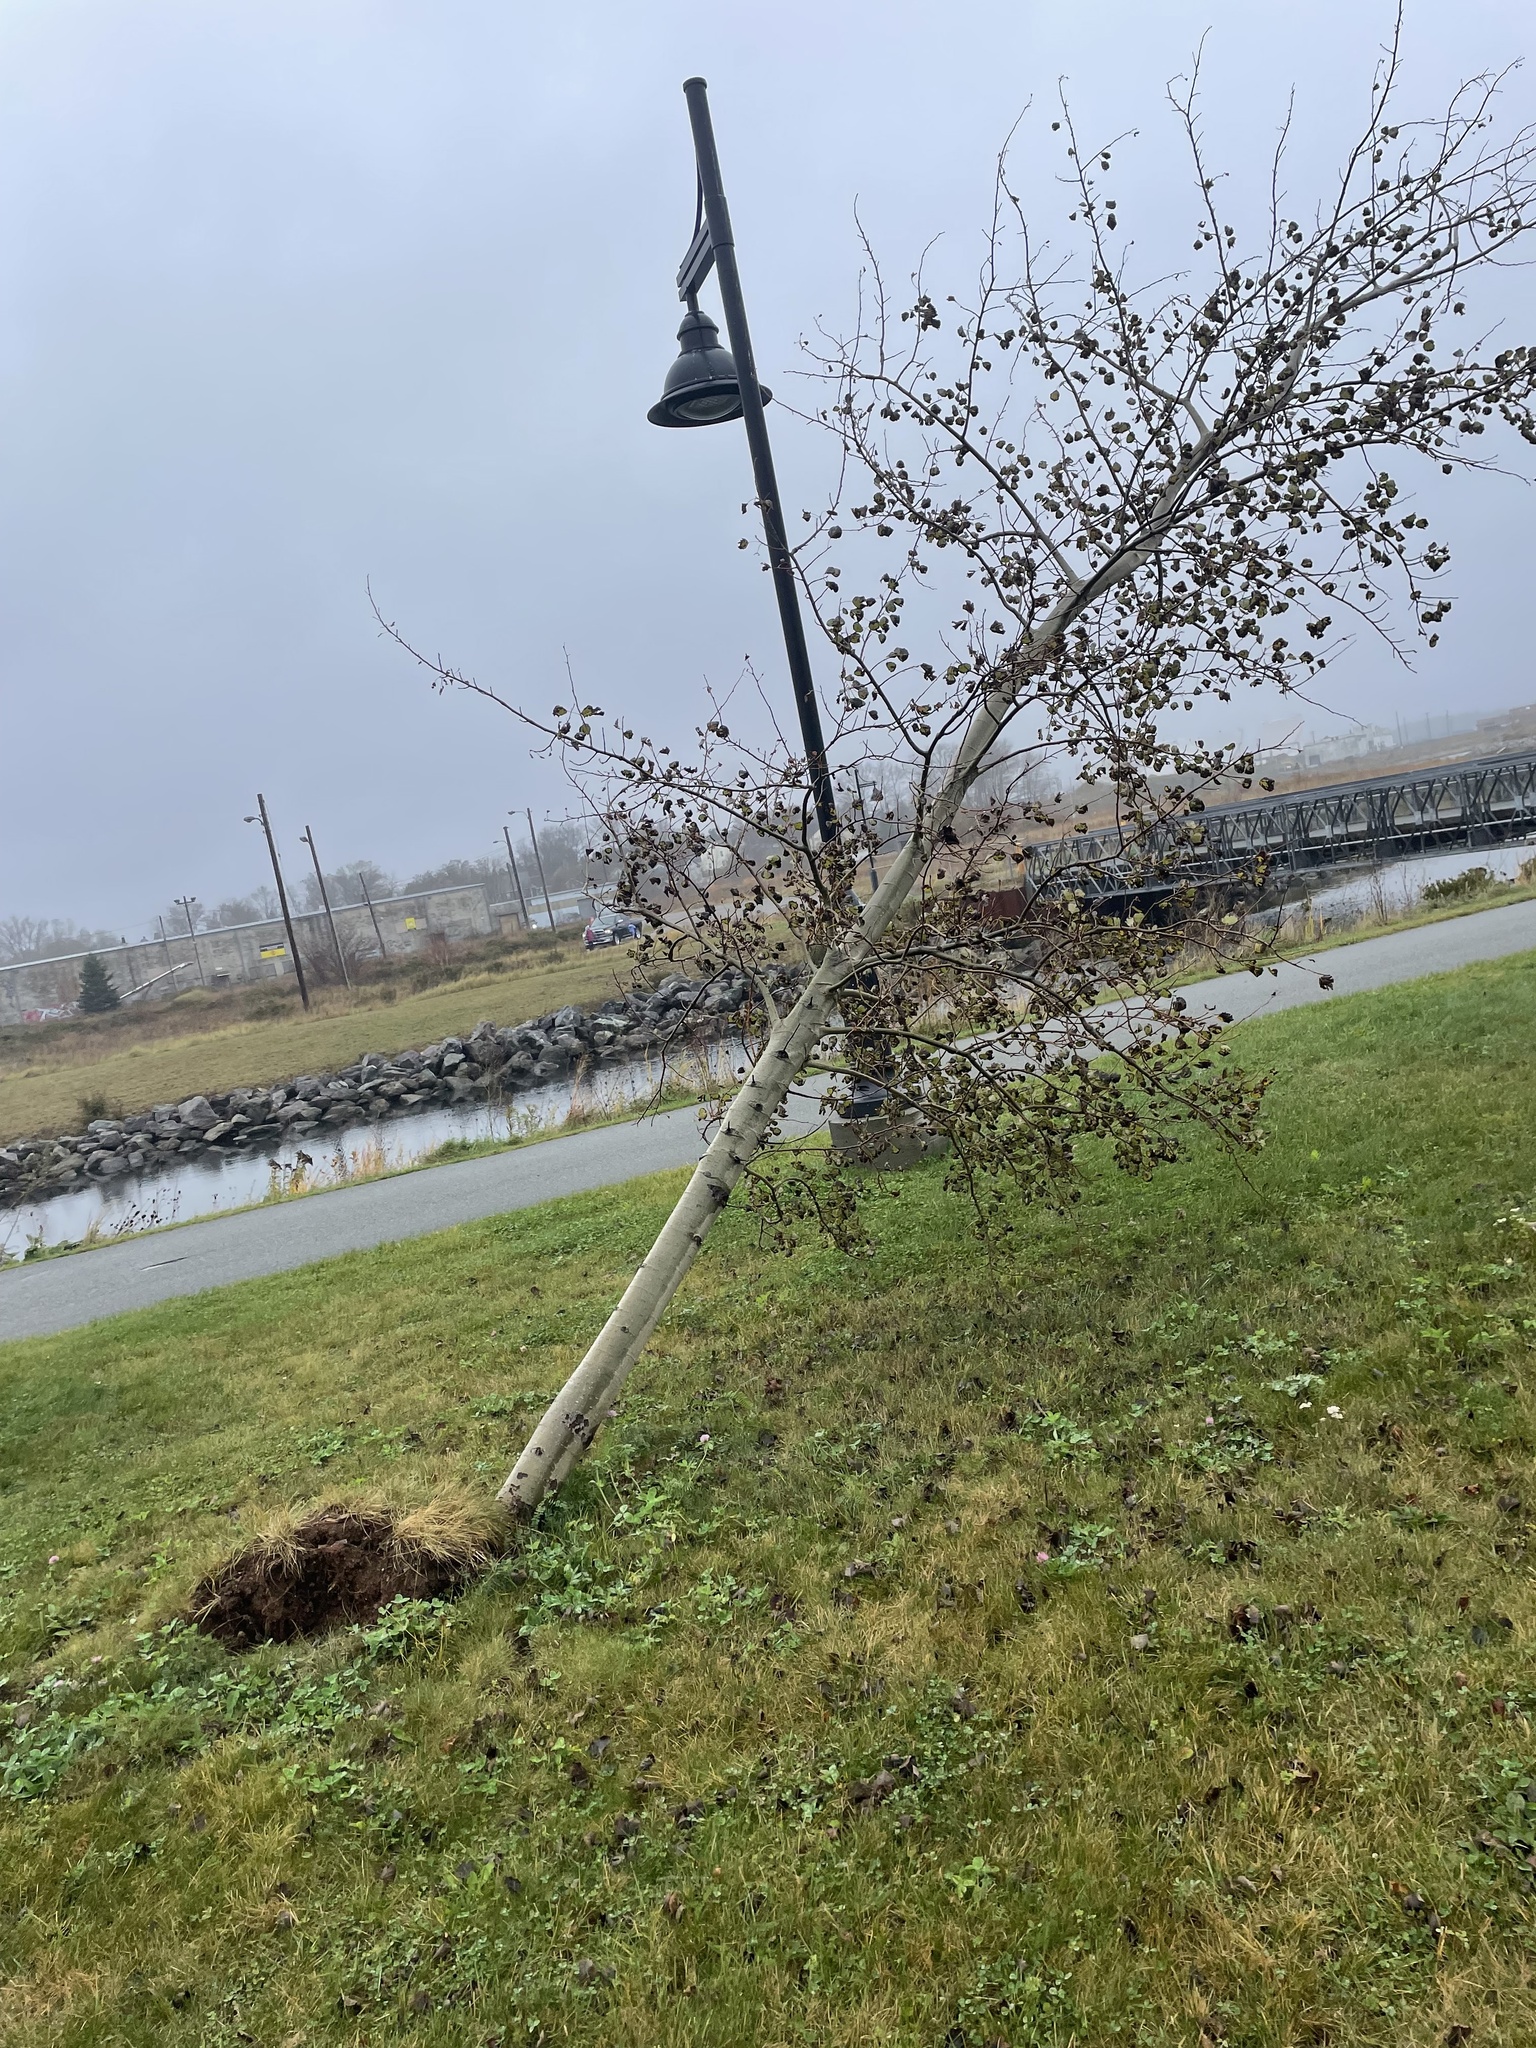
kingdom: Plantae
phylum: Tracheophyta
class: Magnoliopsida
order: Malpighiales
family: Salicaceae
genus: Populus
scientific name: Populus tremuloides
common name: Quaking aspen
